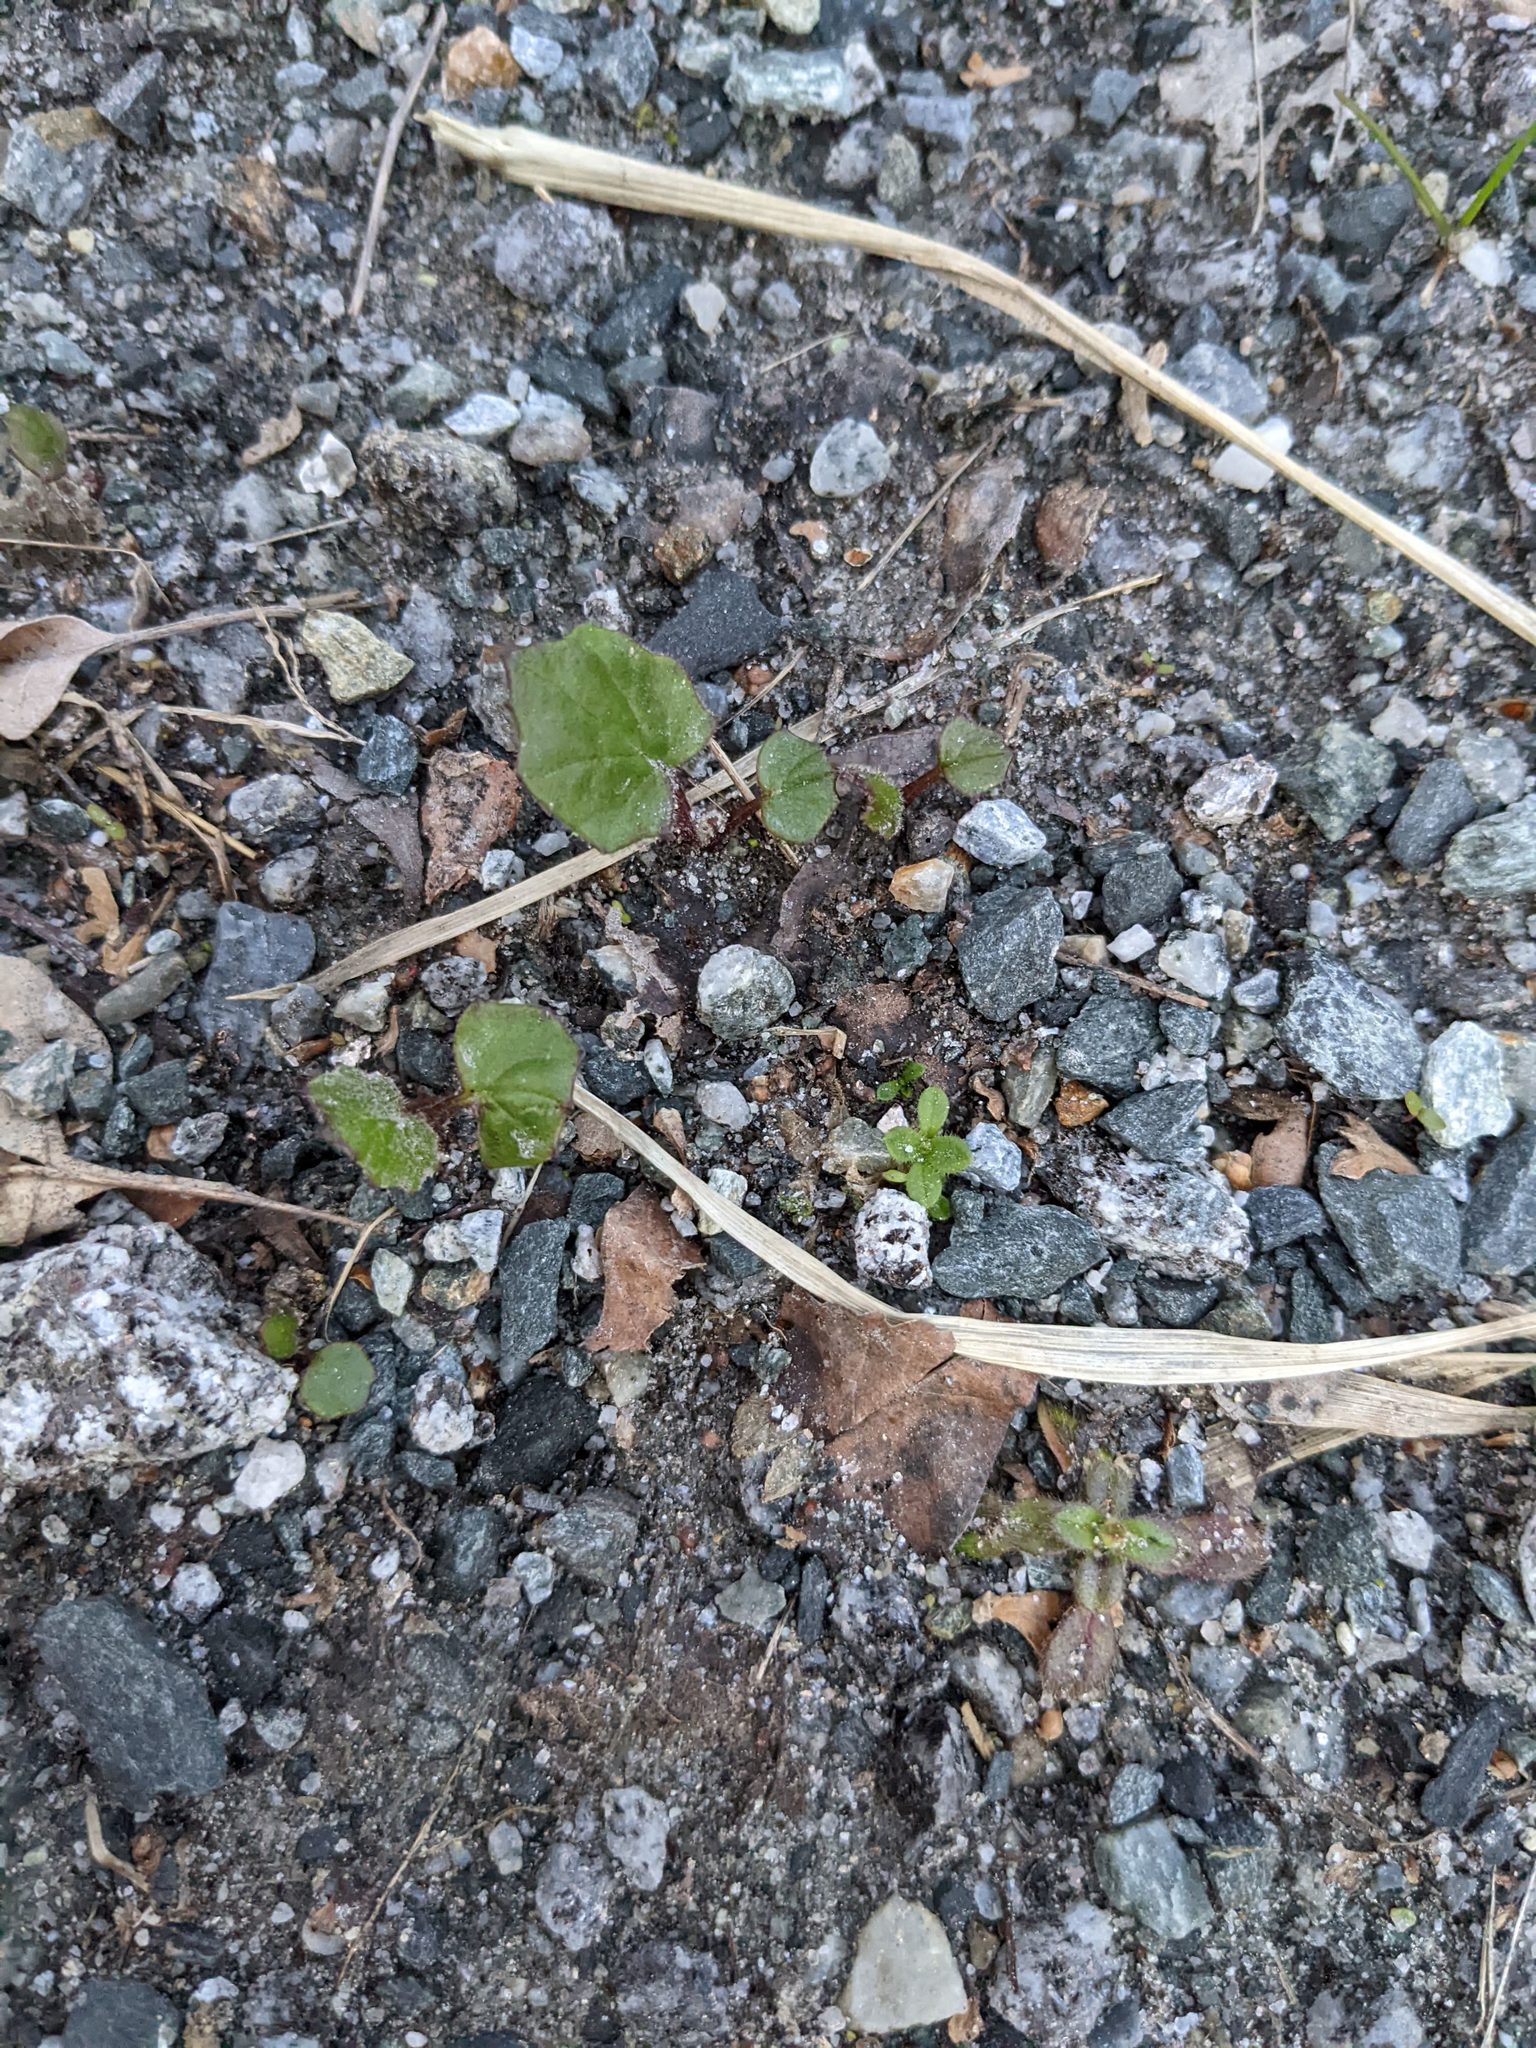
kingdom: Plantae
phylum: Tracheophyta
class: Magnoliopsida
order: Asterales
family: Asteraceae
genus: Tussilago
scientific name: Tussilago farfara
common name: Coltsfoot
